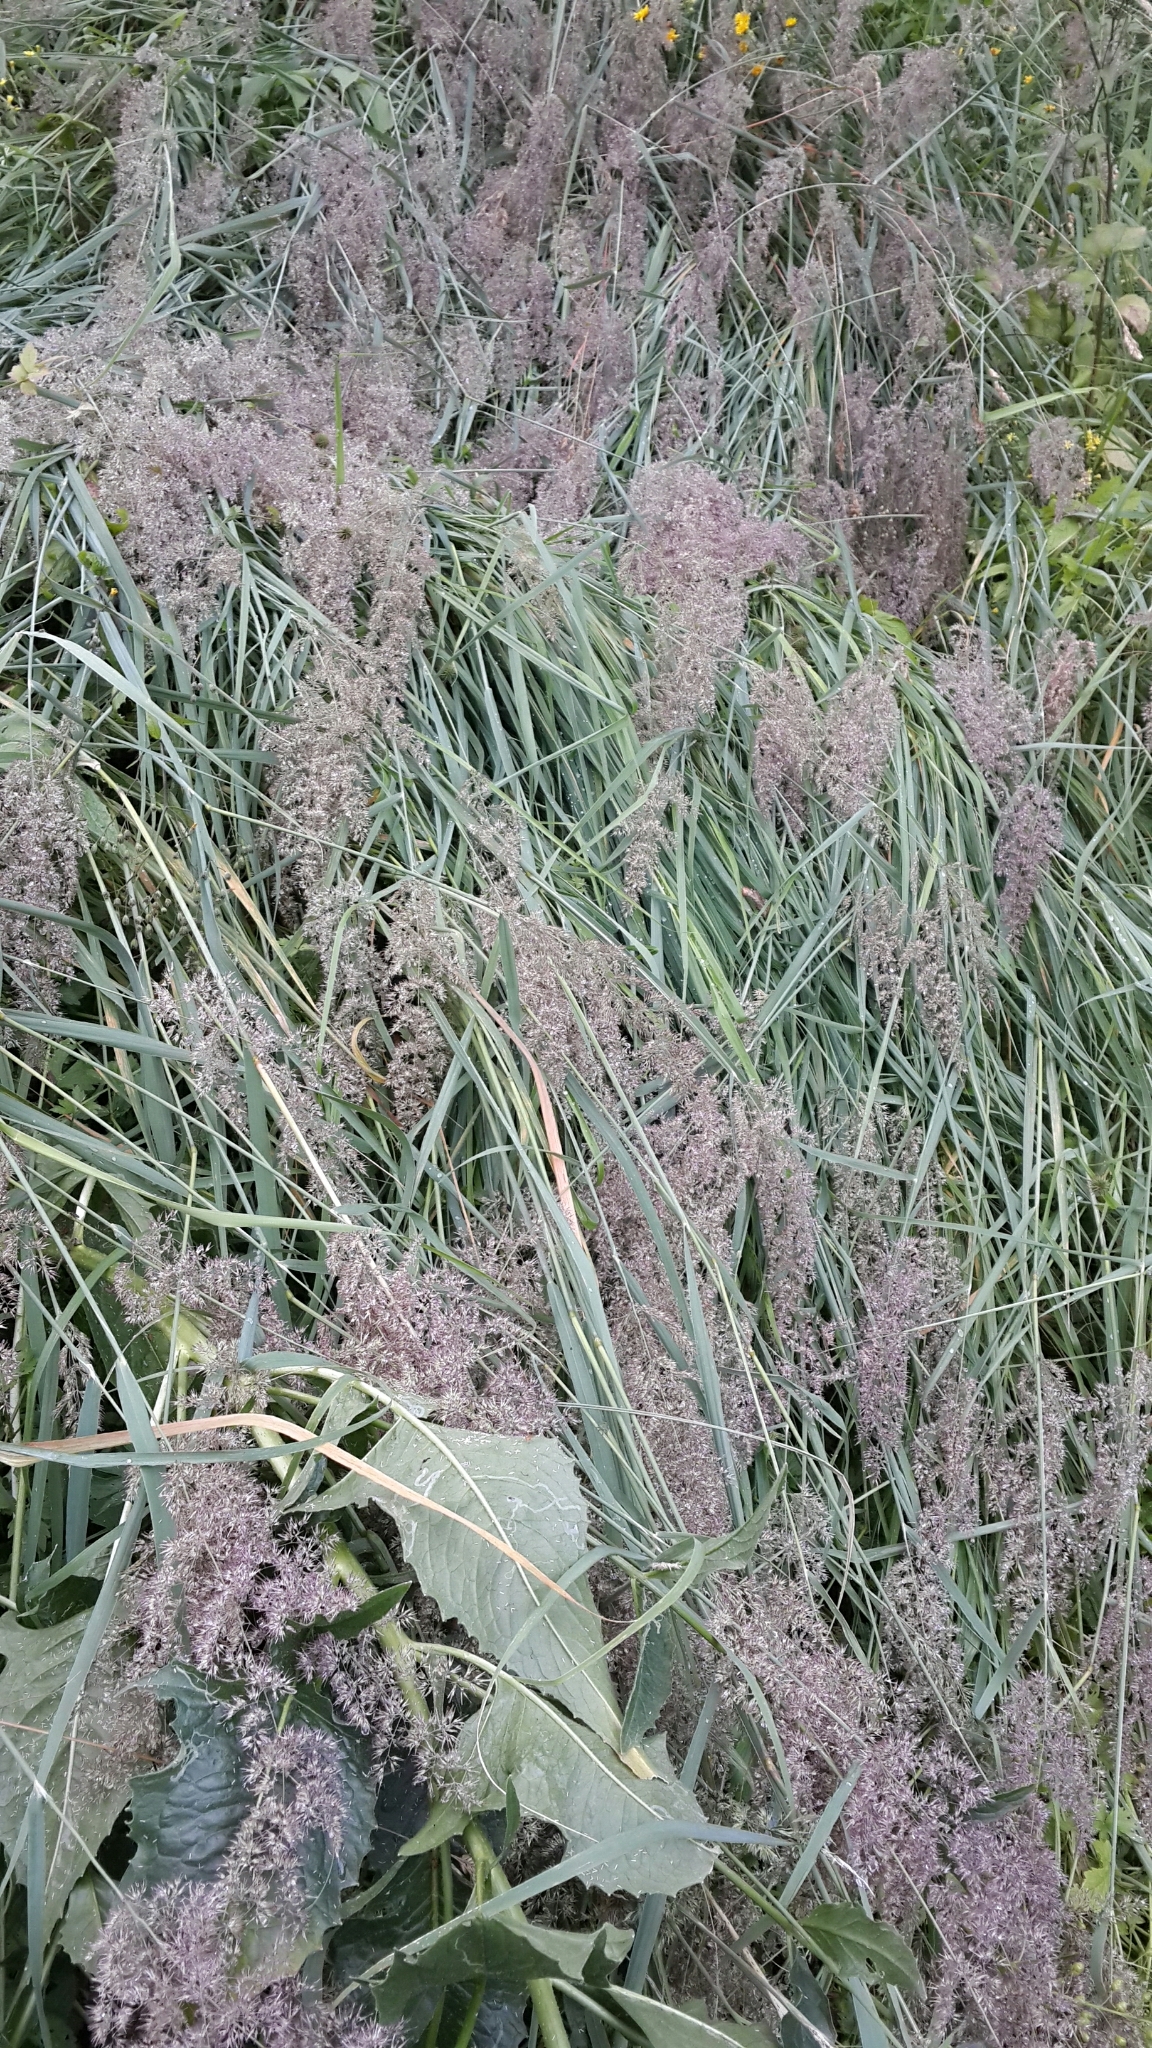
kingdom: Plantae
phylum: Tracheophyta
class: Liliopsida
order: Poales
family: Poaceae
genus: Calamagrostis
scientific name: Calamagrostis epigejos
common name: Wood small-reed
